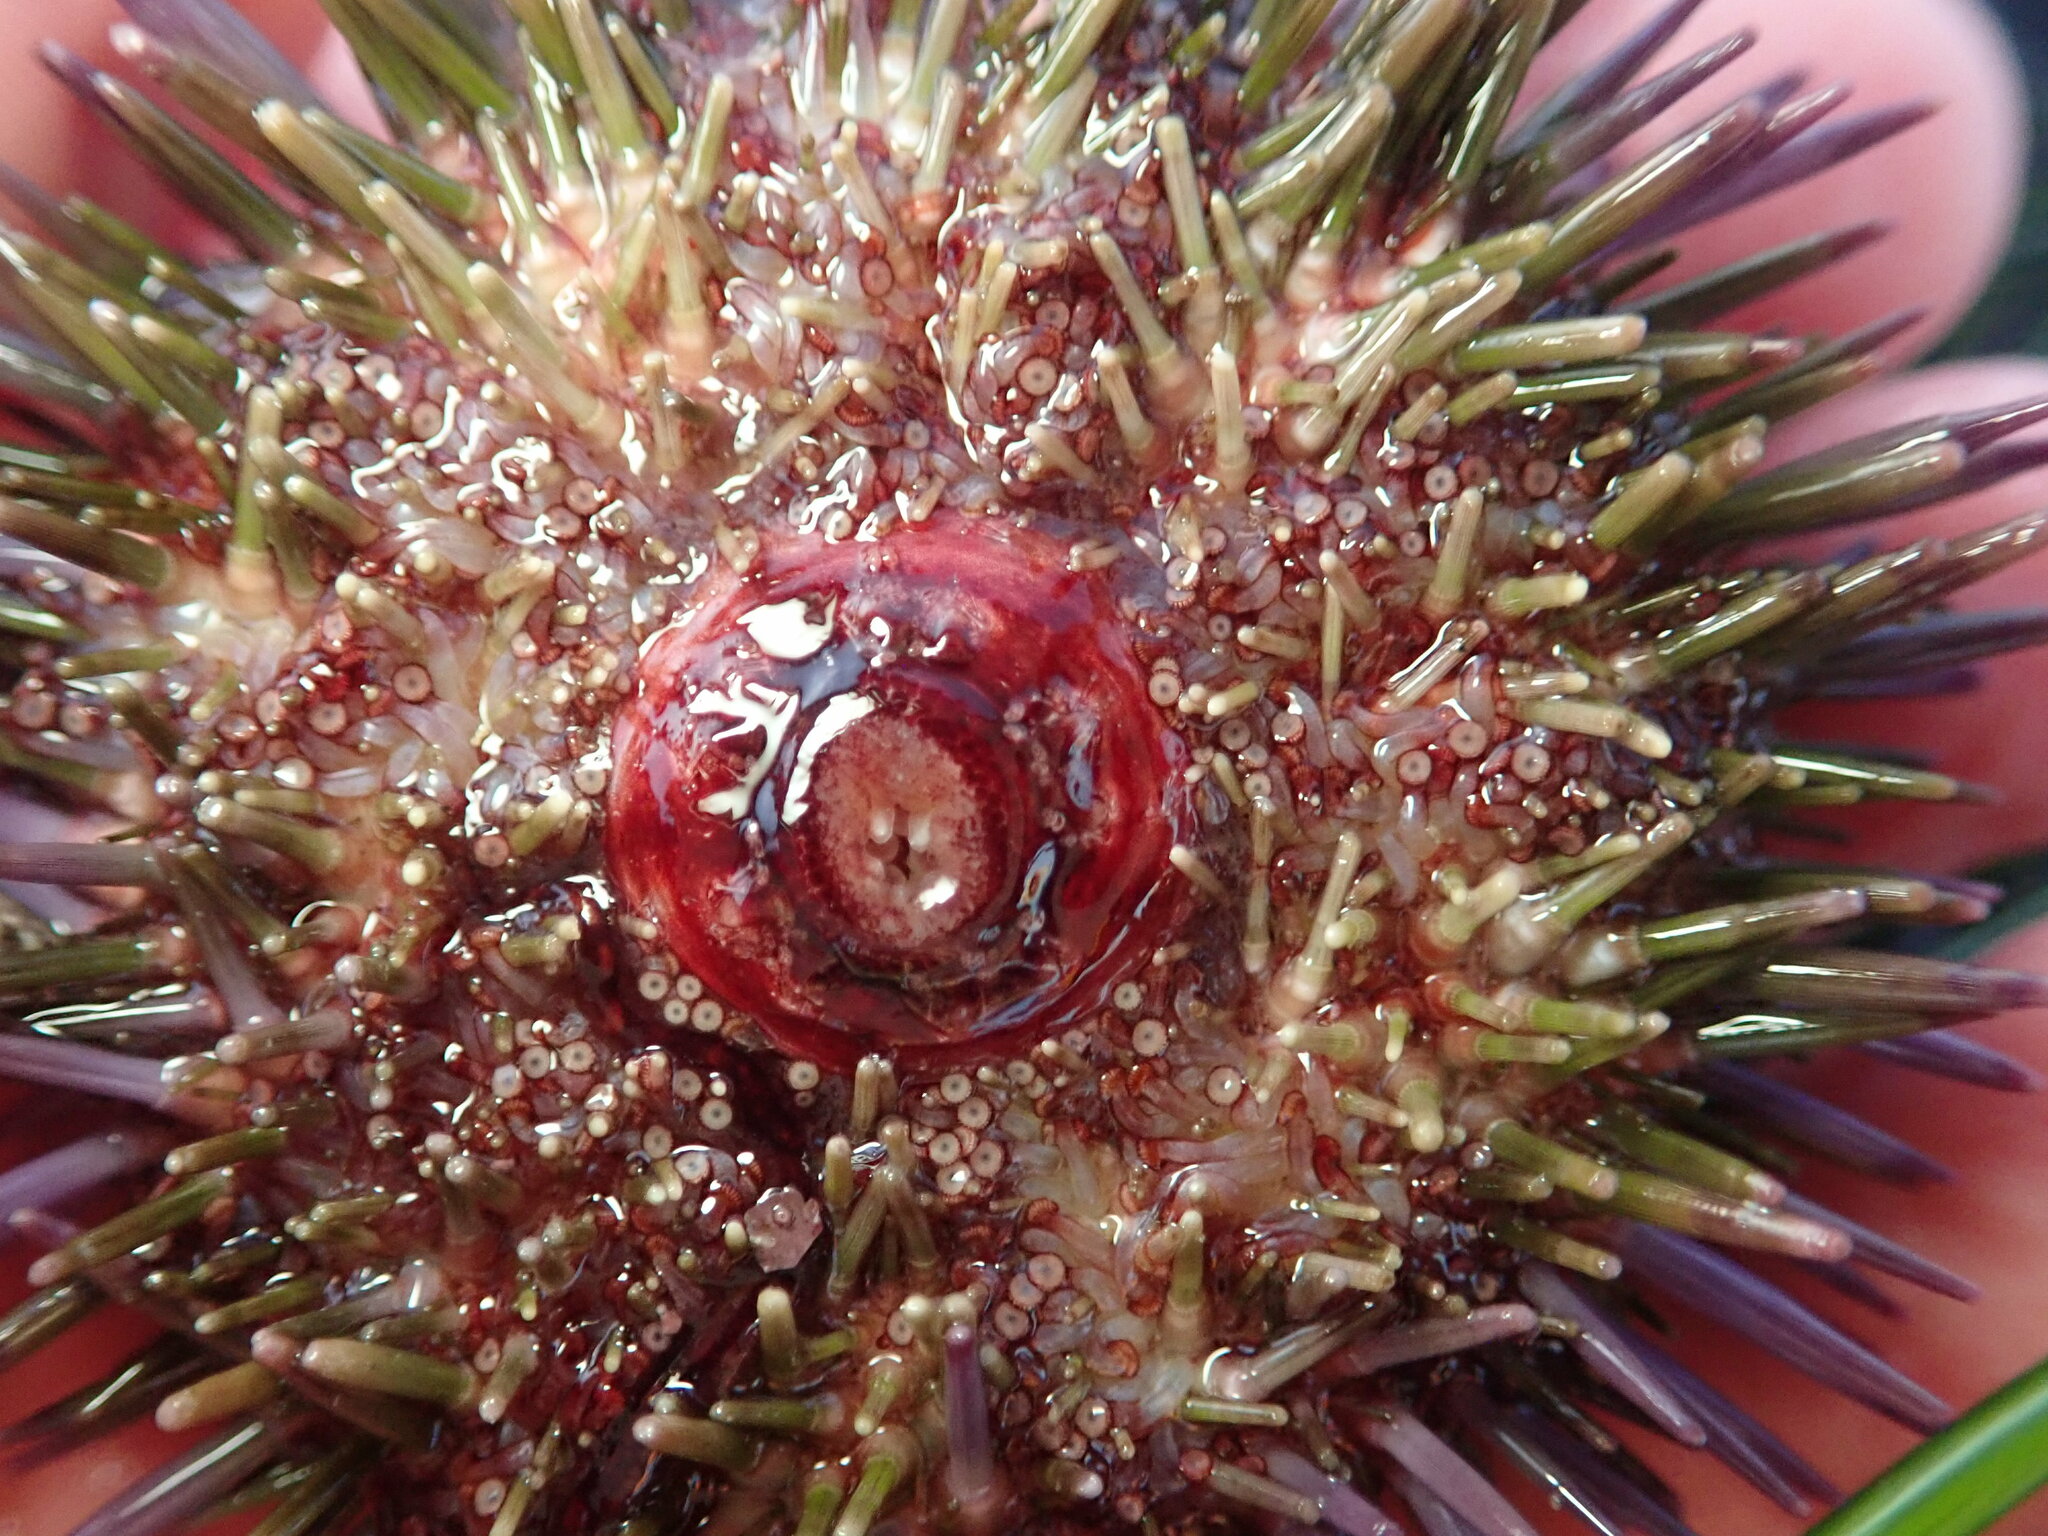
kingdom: Animalia
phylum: Echinodermata
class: Echinoidea
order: Camarodonta
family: Strongylocentrotidae
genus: Strongylocentrotus
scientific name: Strongylocentrotus purpuratus
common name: Purple sea urchin
